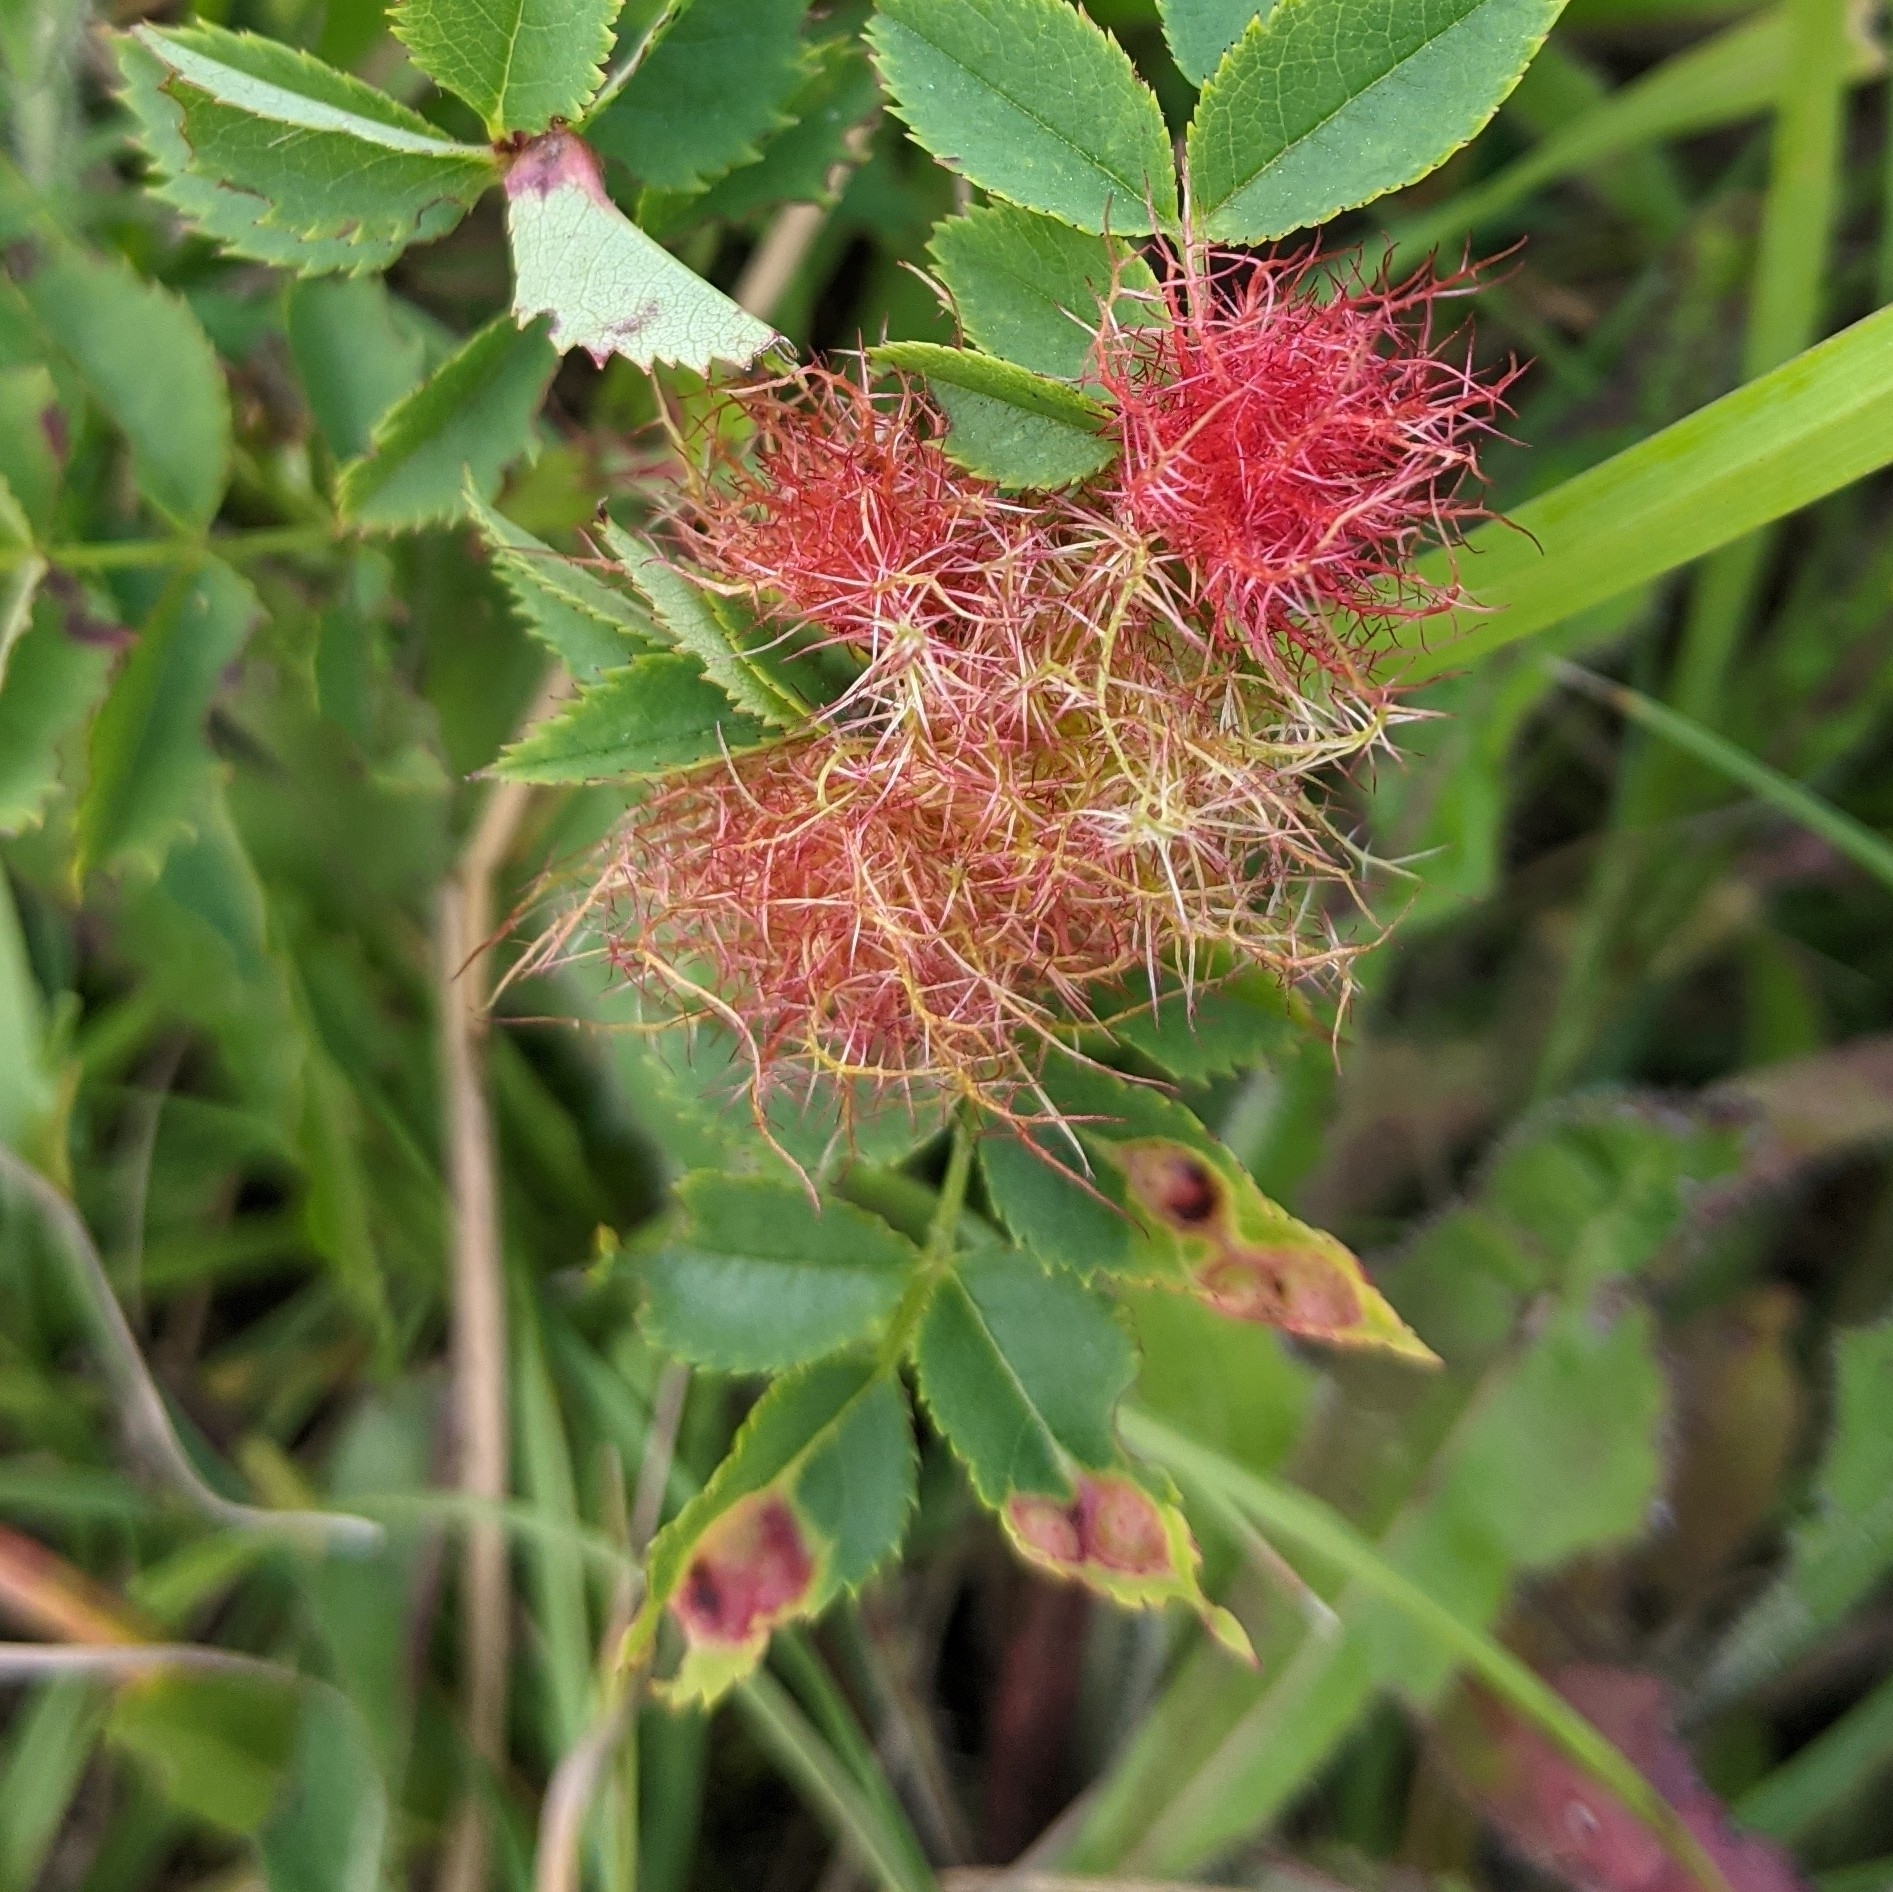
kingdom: Animalia
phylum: Arthropoda
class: Insecta
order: Hymenoptera
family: Cynipidae
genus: Diplolepis
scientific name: Diplolepis rosae
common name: Bedeguar gall
